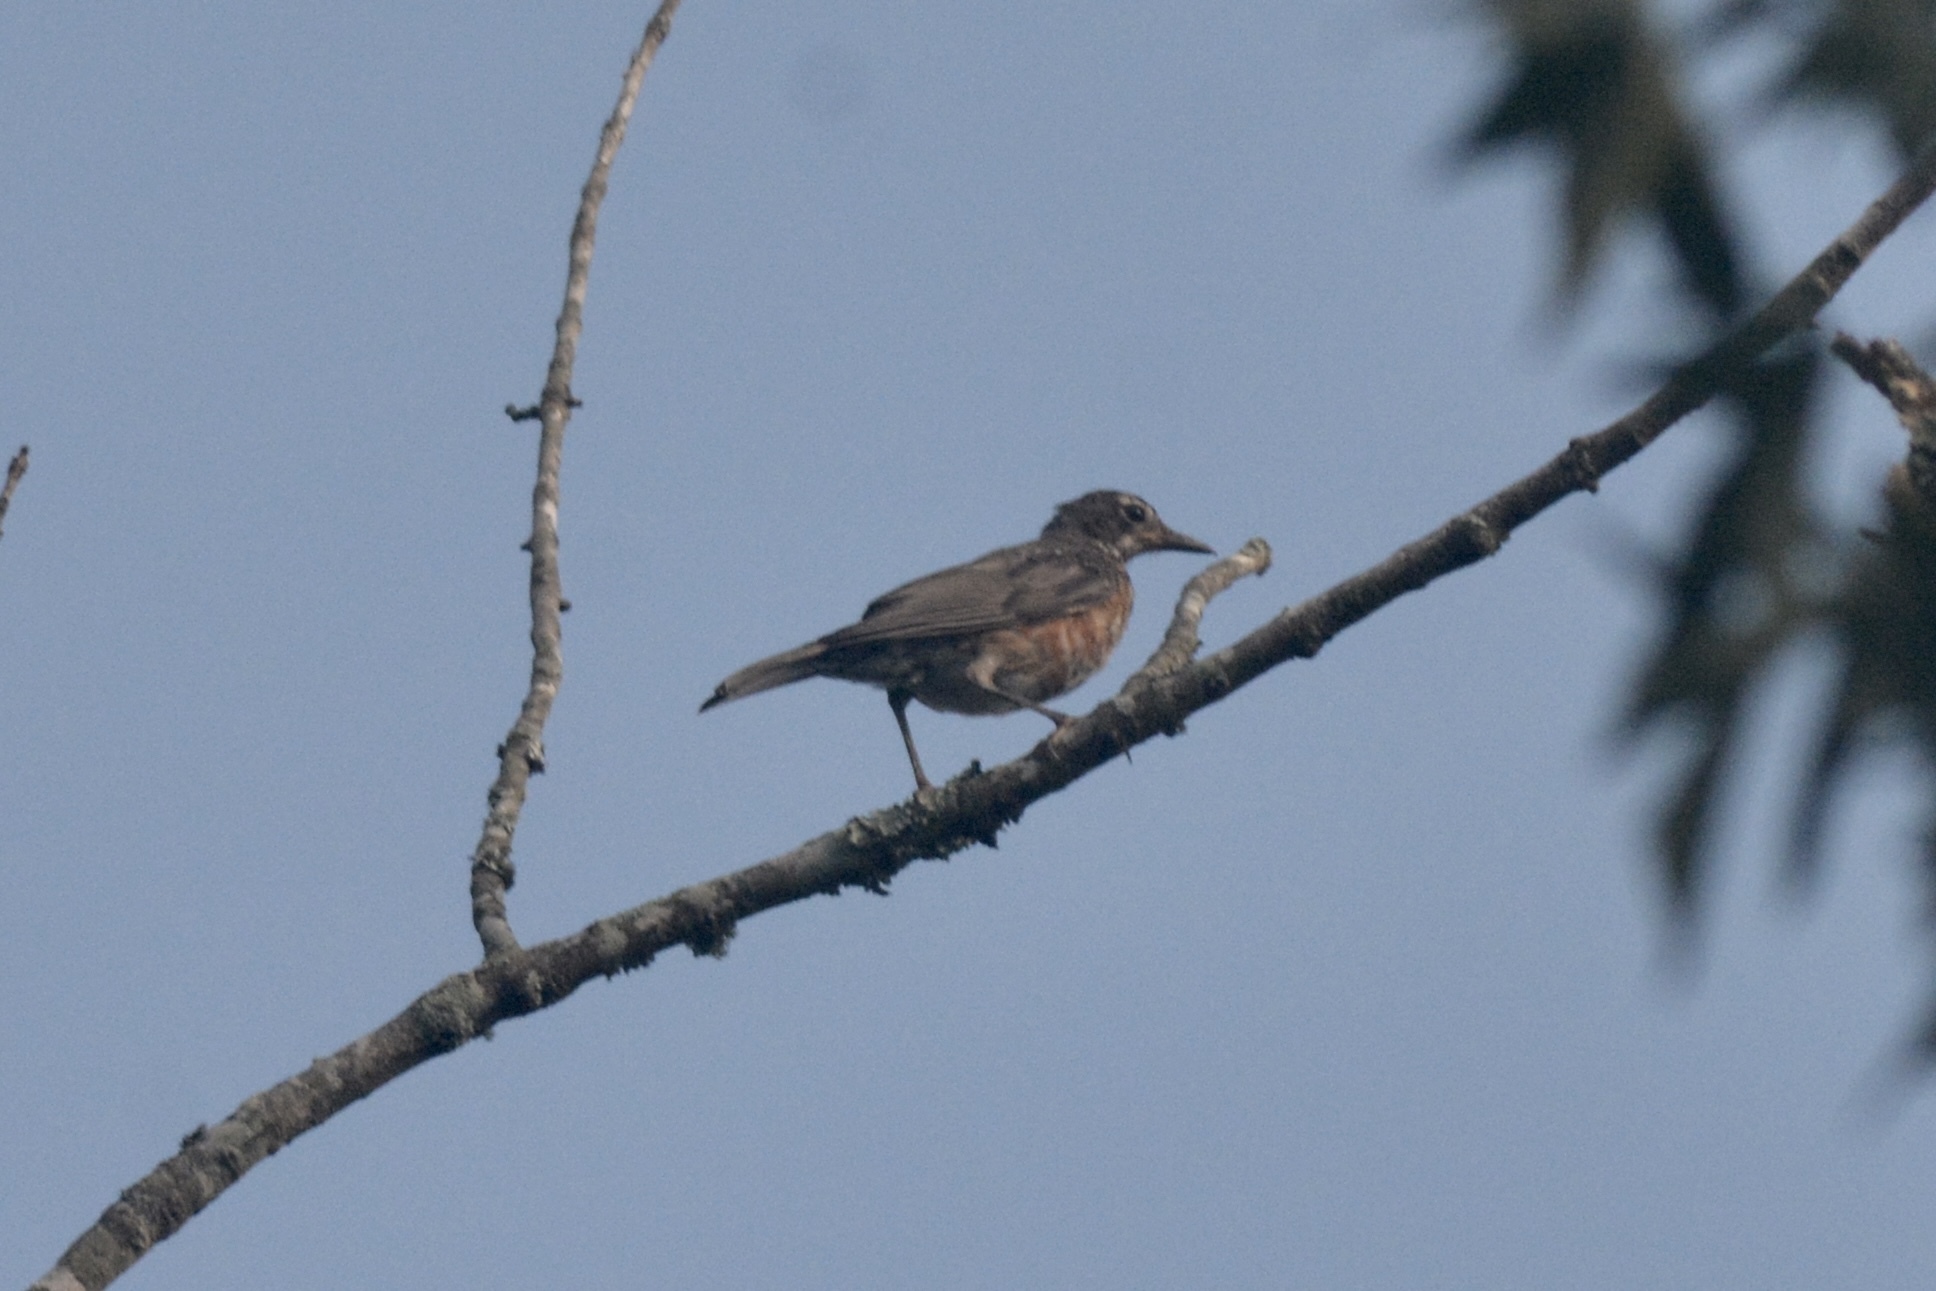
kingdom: Animalia
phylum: Chordata
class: Aves
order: Passeriformes
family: Turdidae
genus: Turdus
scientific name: Turdus migratorius
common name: American robin
